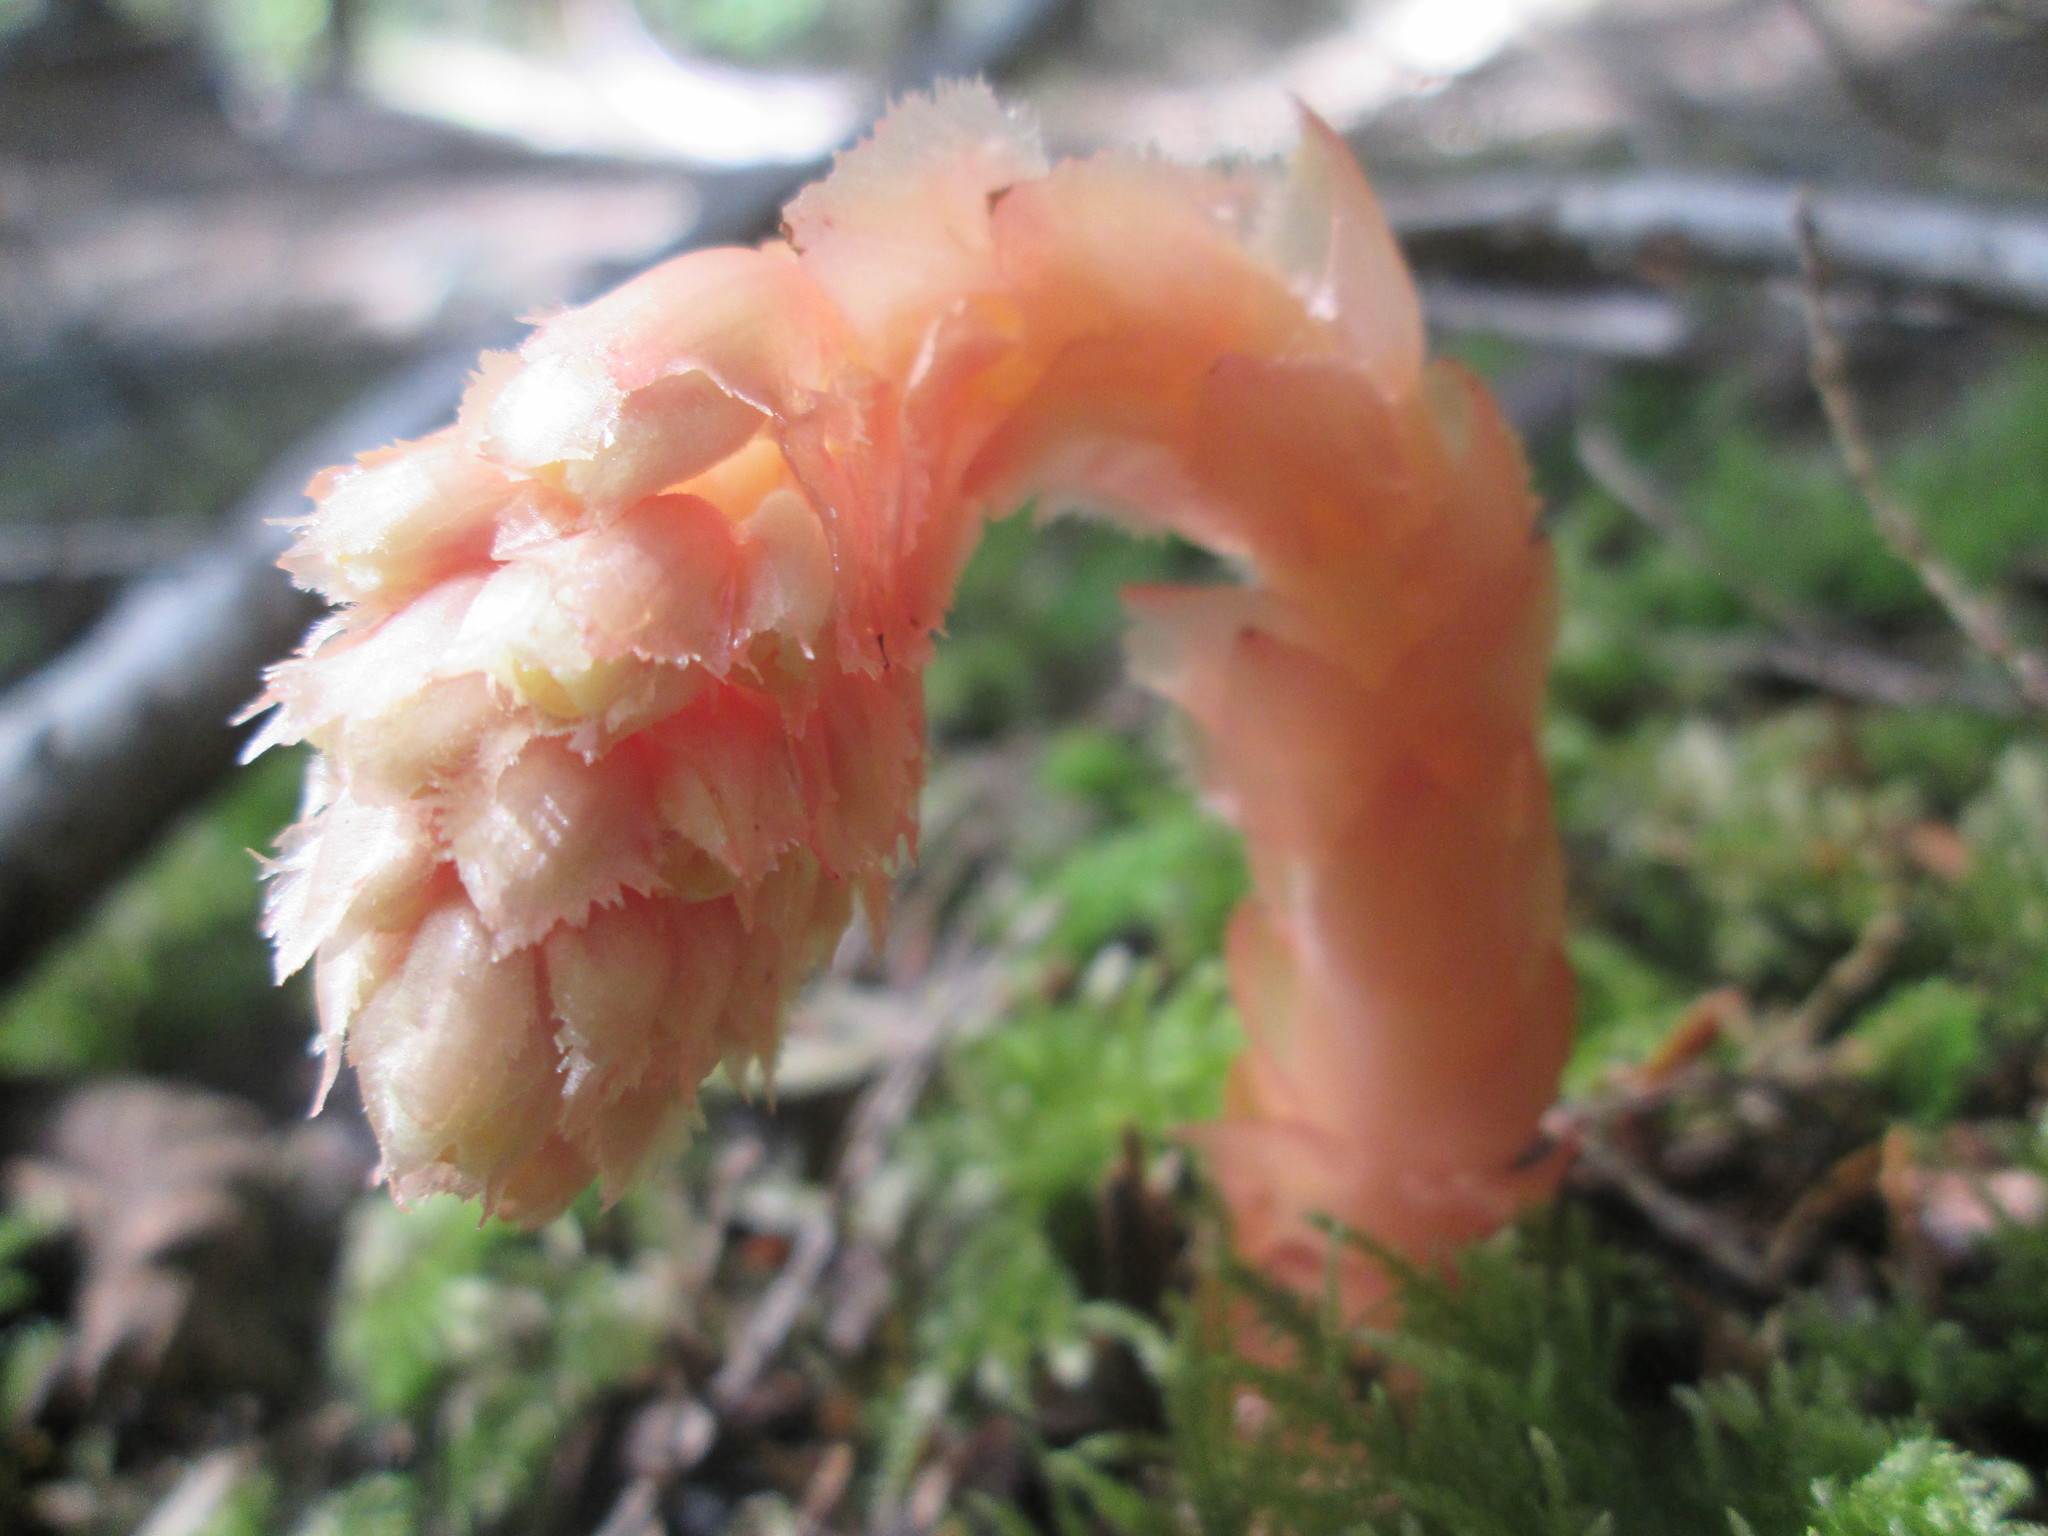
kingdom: Plantae
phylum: Tracheophyta
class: Magnoliopsida
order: Ericales
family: Ericaceae
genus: Hypopitys
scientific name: Hypopitys monotropa
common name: Yellow bird's-nest
